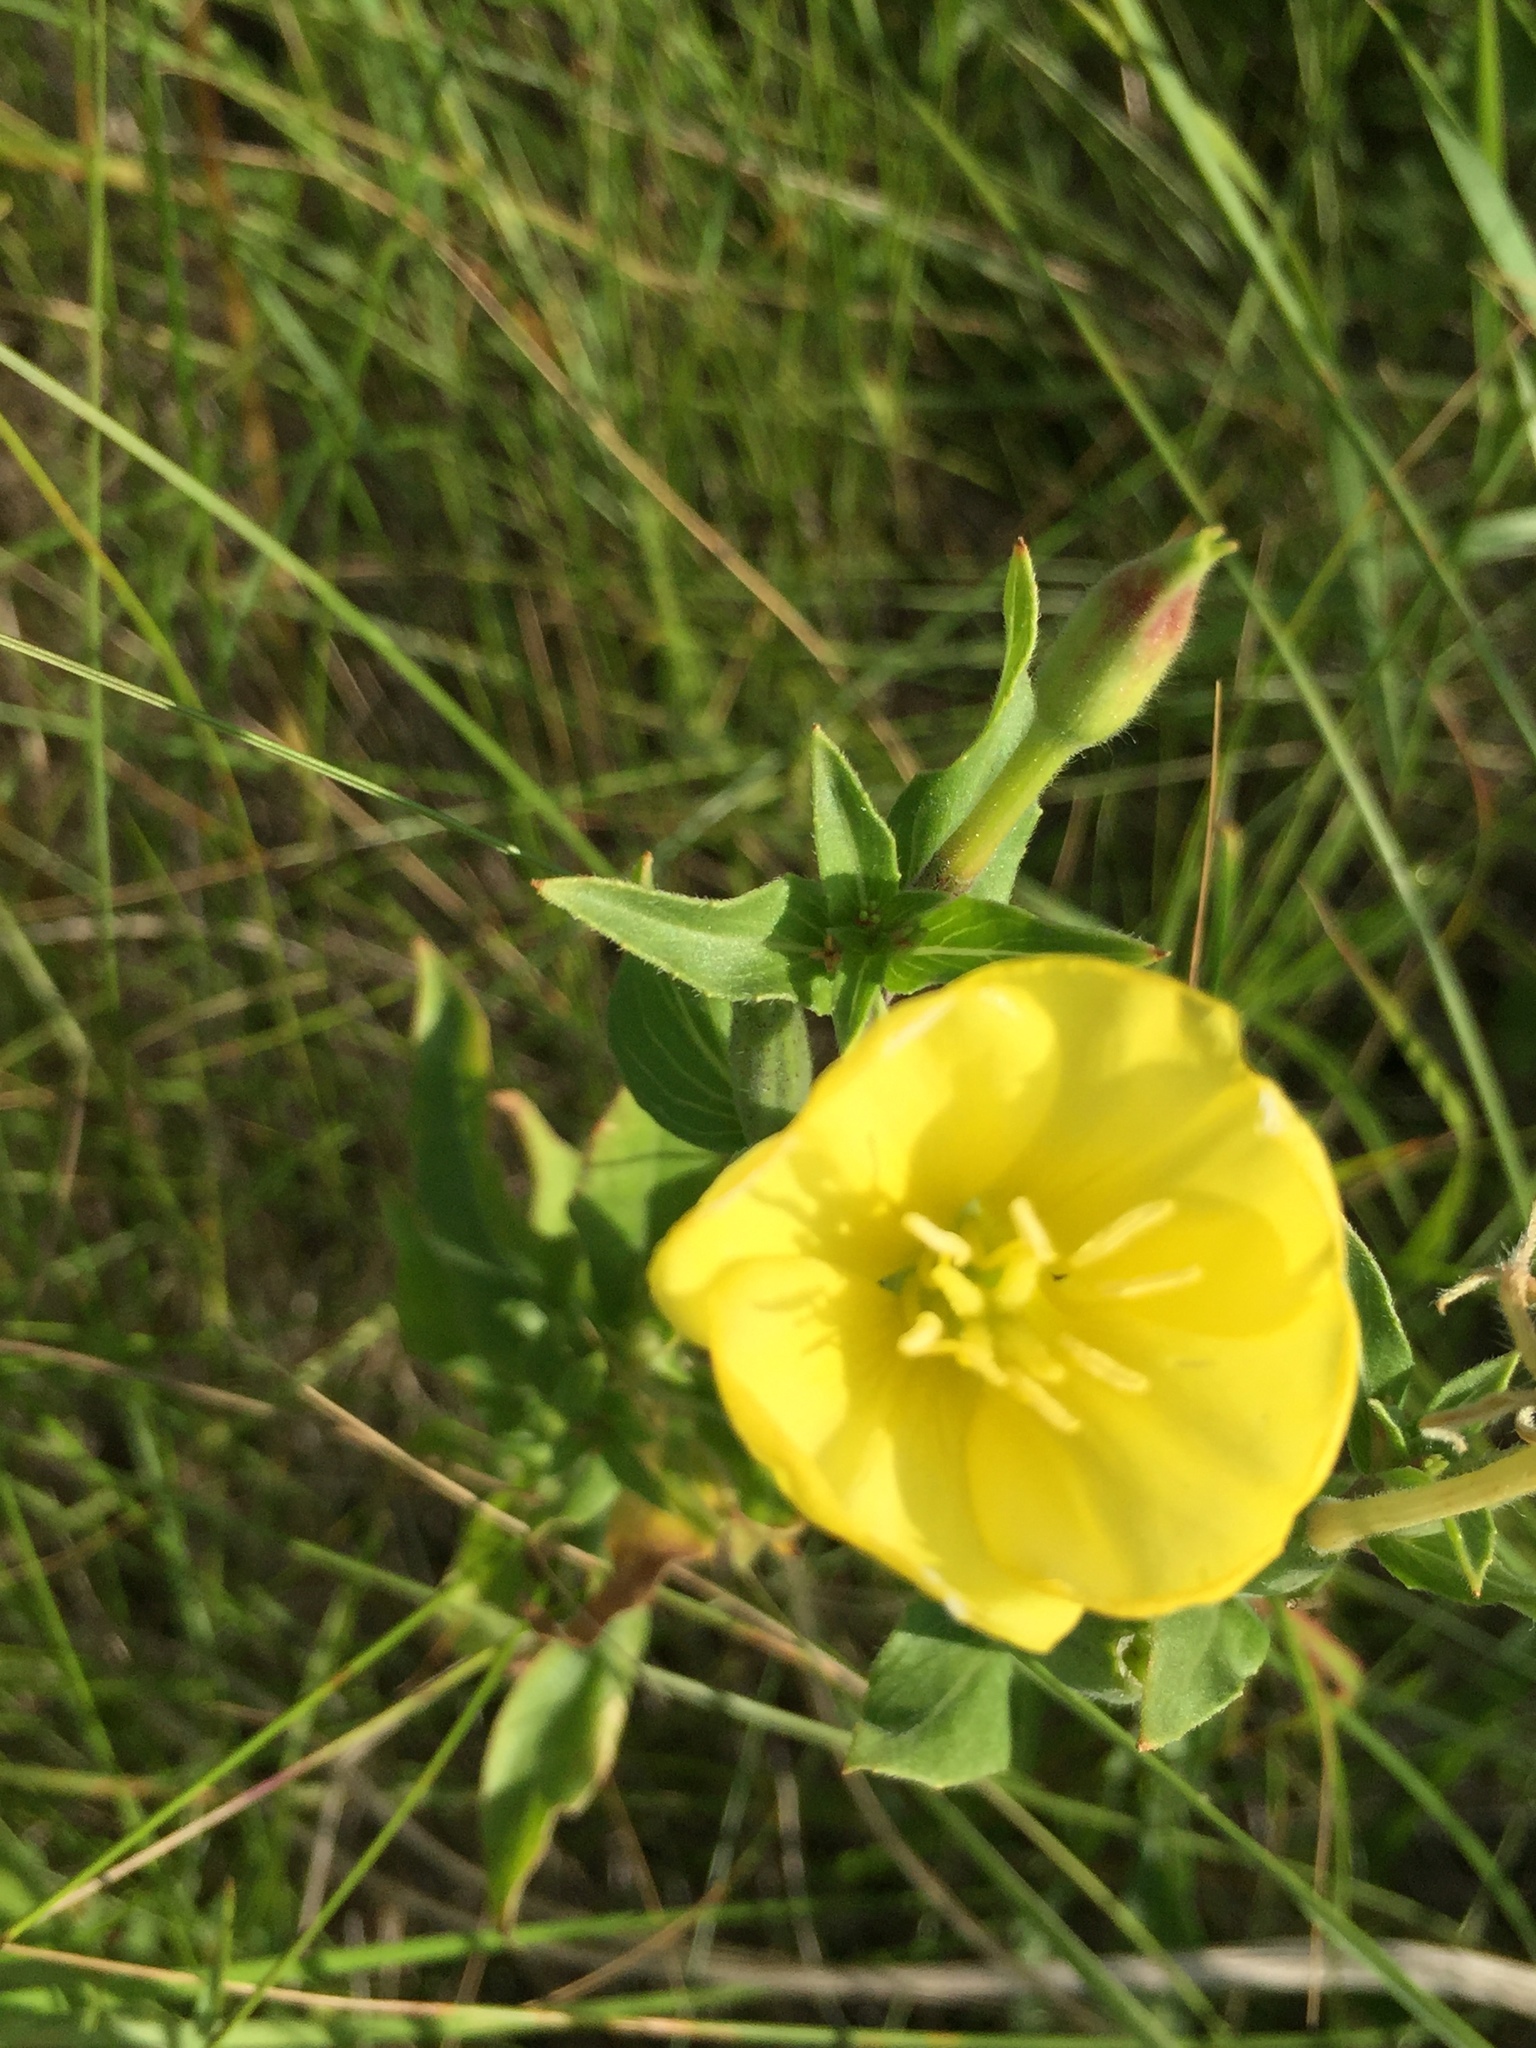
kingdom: Plantae
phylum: Tracheophyta
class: Magnoliopsida
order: Myrtales
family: Onagraceae
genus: Oenothera
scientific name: Oenothera biennis
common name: Common evening-primrose
